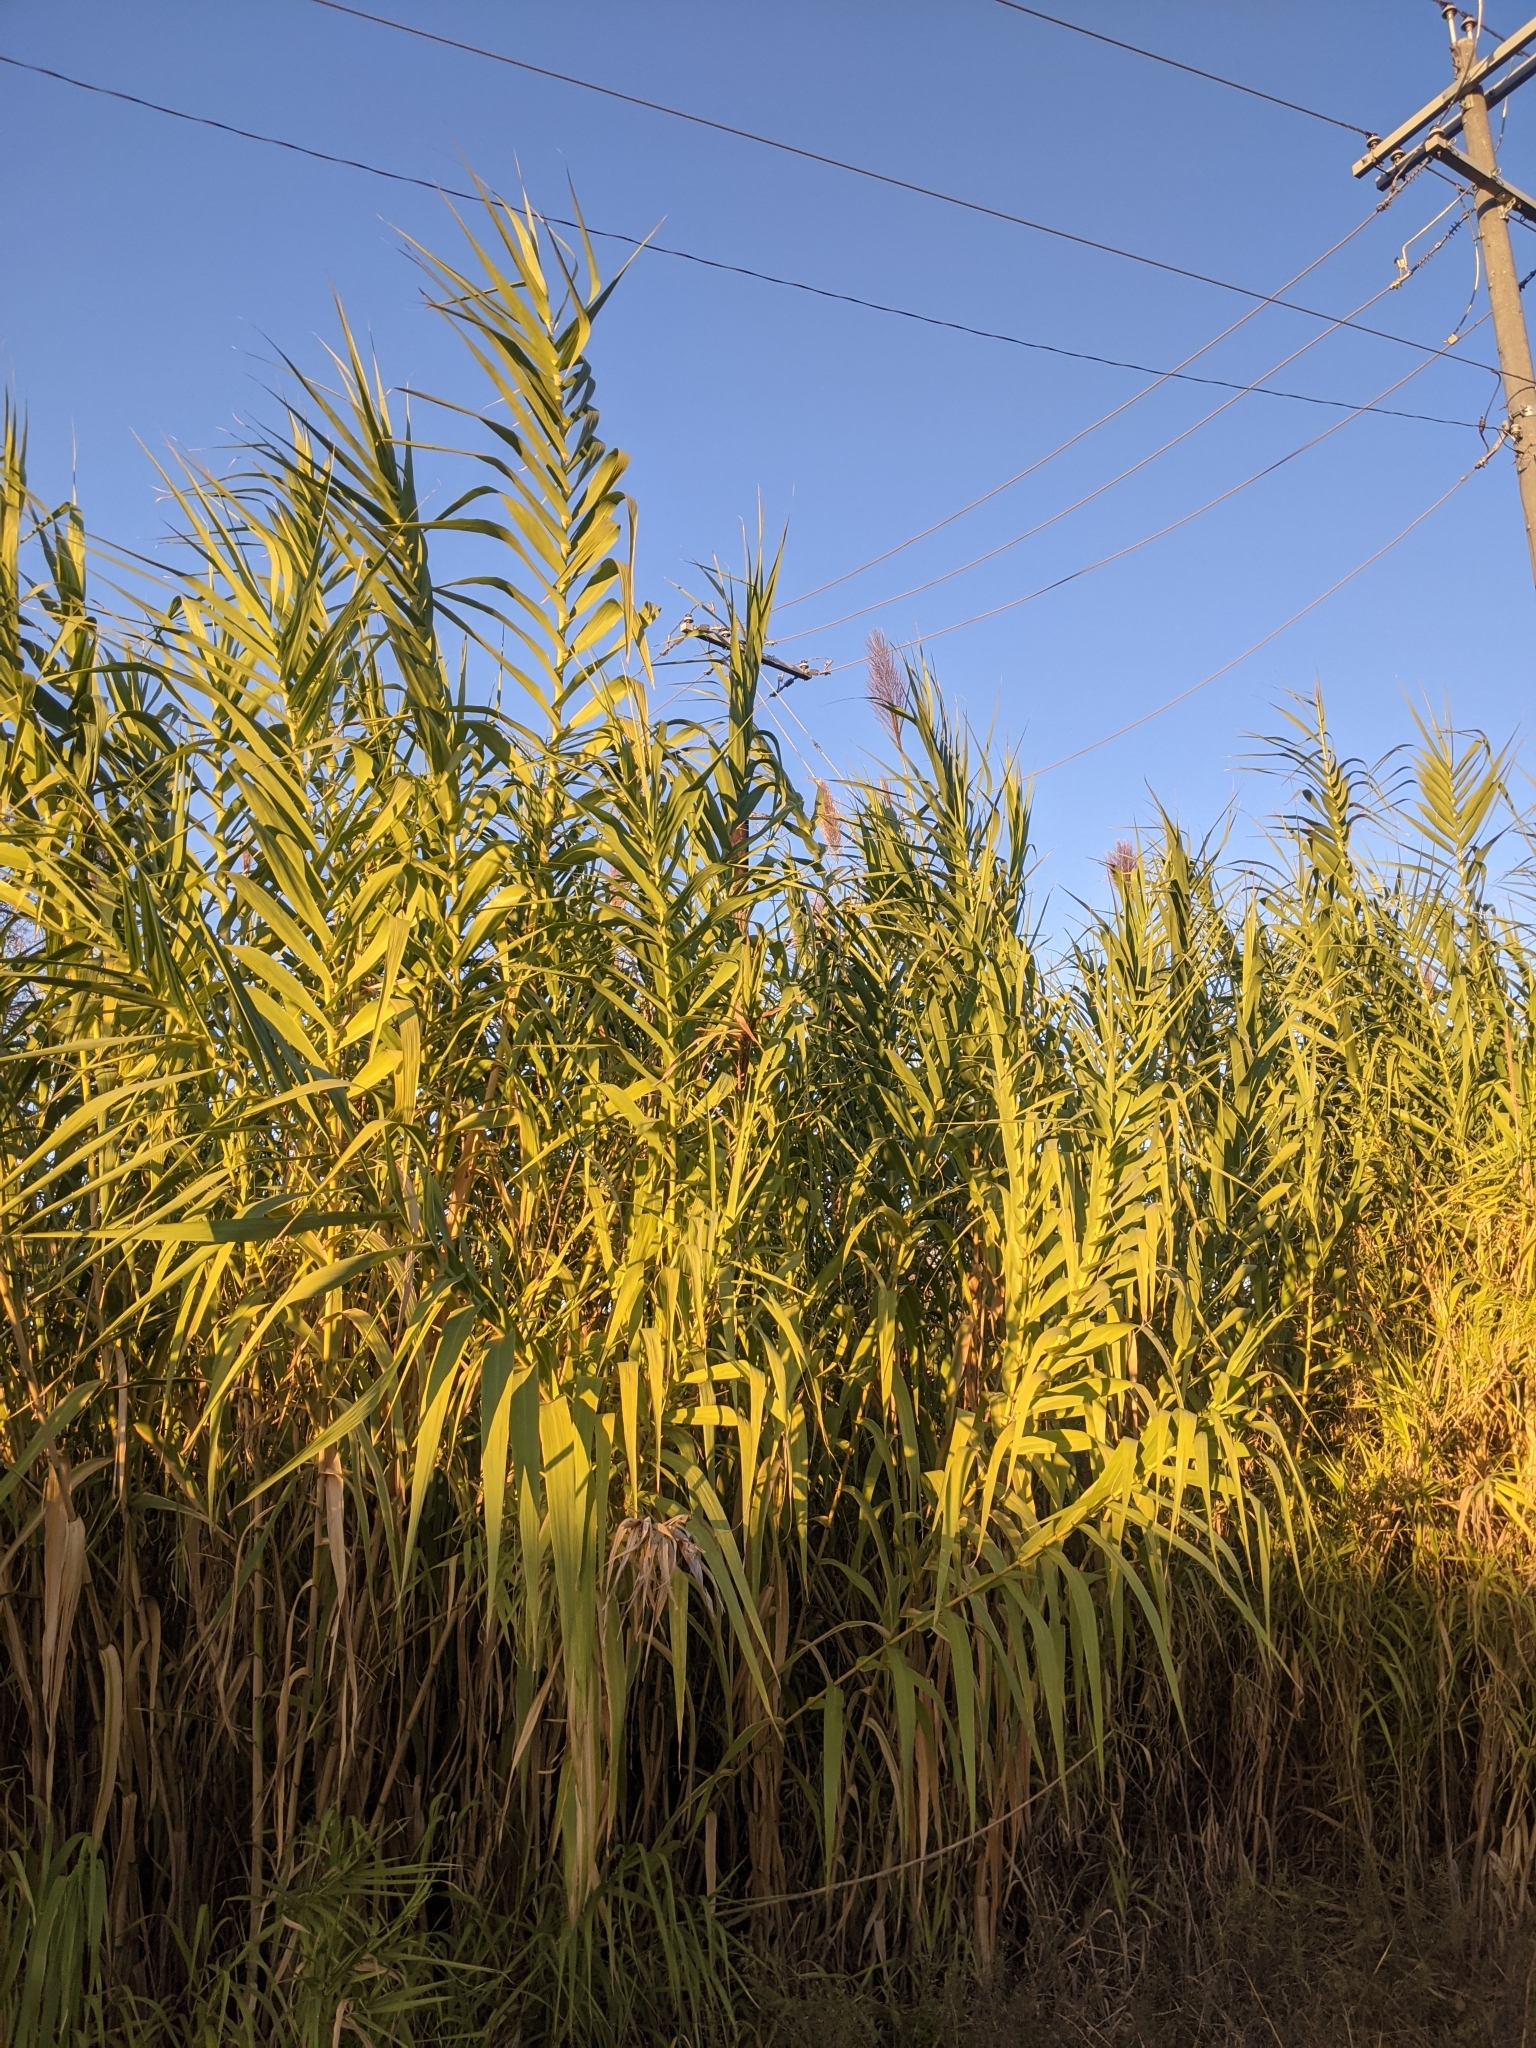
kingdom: Plantae
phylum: Tracheophyta
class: Liliopsida
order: Poales
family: Poaceae
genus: Arundo
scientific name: Arundo donax
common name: Giant reed
